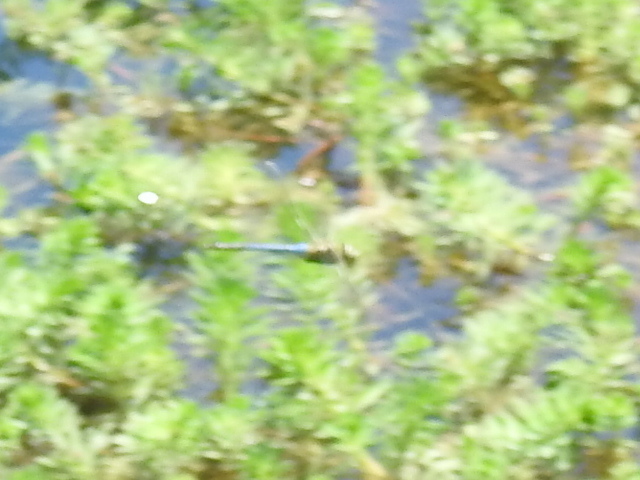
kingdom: Animalia
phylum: Arthropoda
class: Insecta
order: Odonata
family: Aeshnidae
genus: Anax
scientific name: Anax junius
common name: Common green darner
